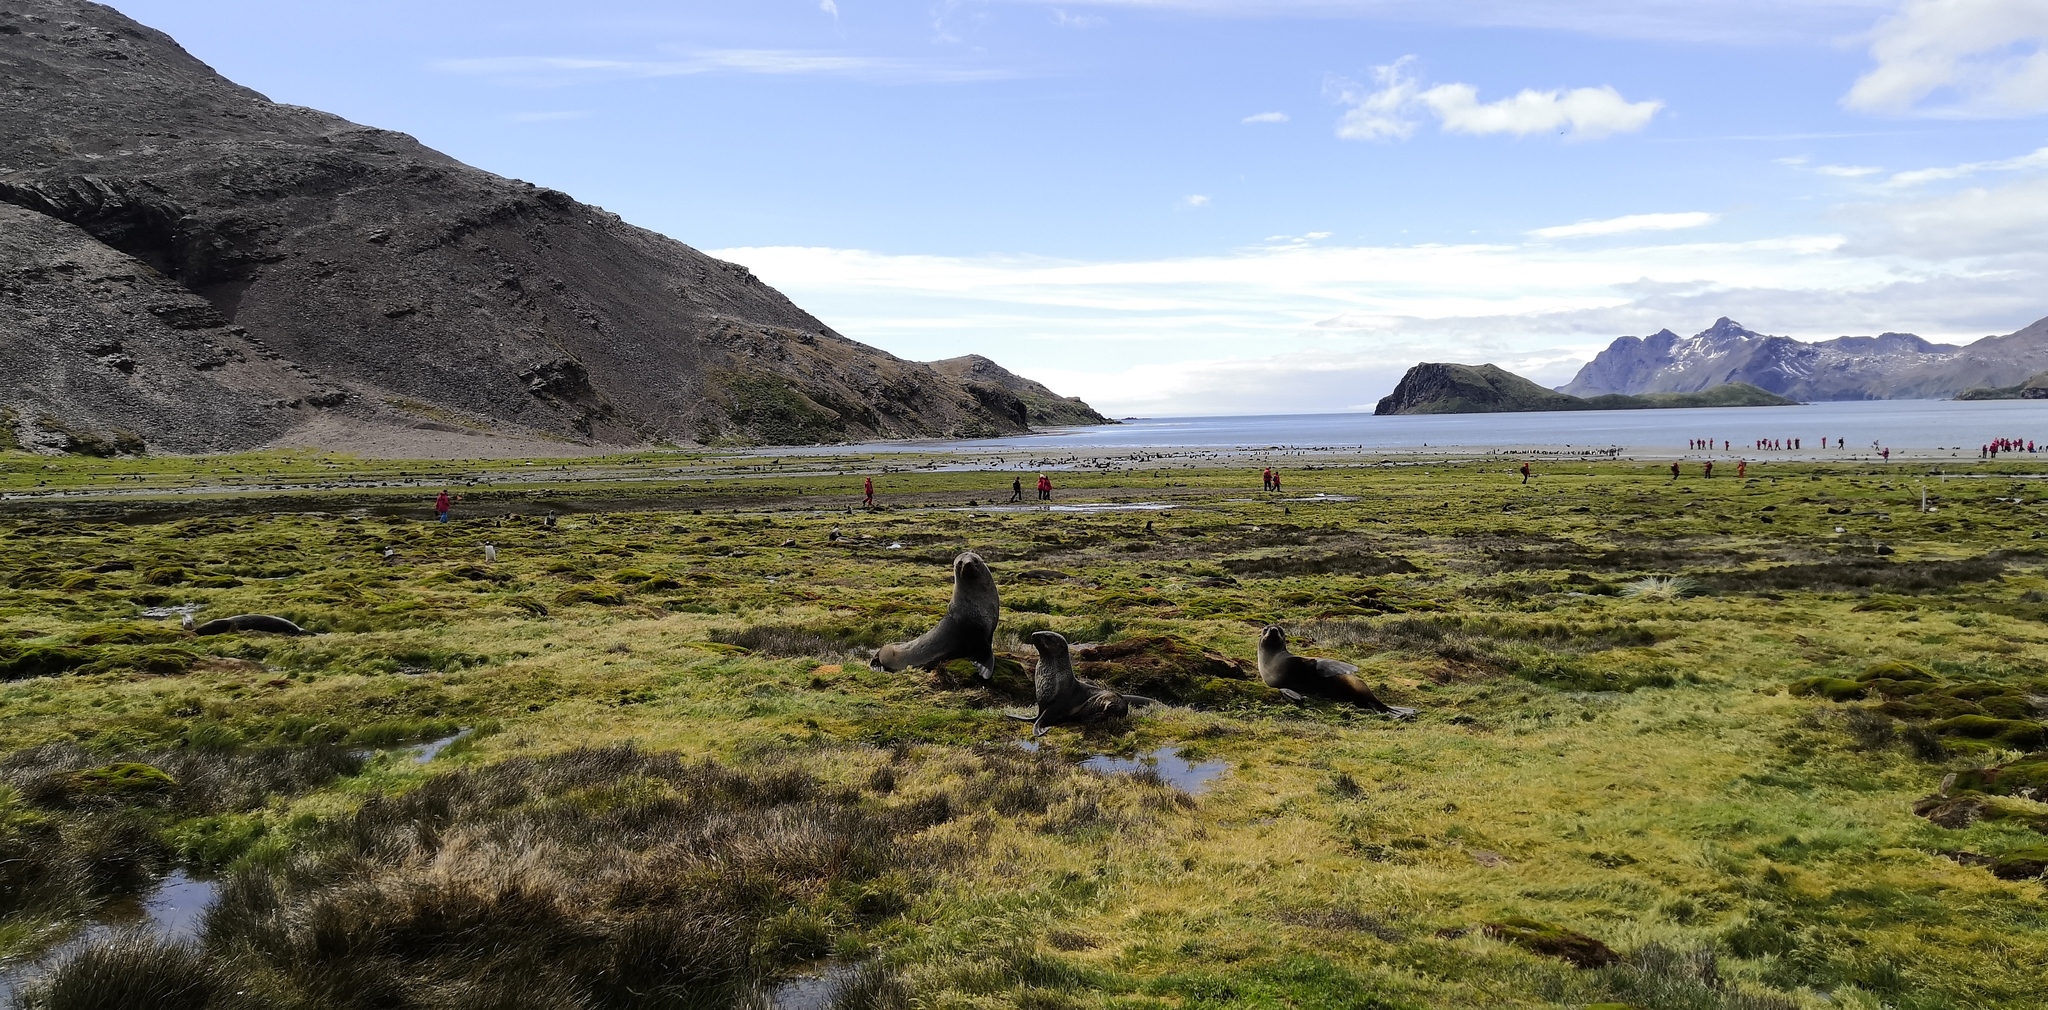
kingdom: Animalia
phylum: Chordata
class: Mammalia
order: Carnivora
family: Otariidae
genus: Arctocephalus
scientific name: Arctocephalus gazella
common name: Antarctic fur seal
